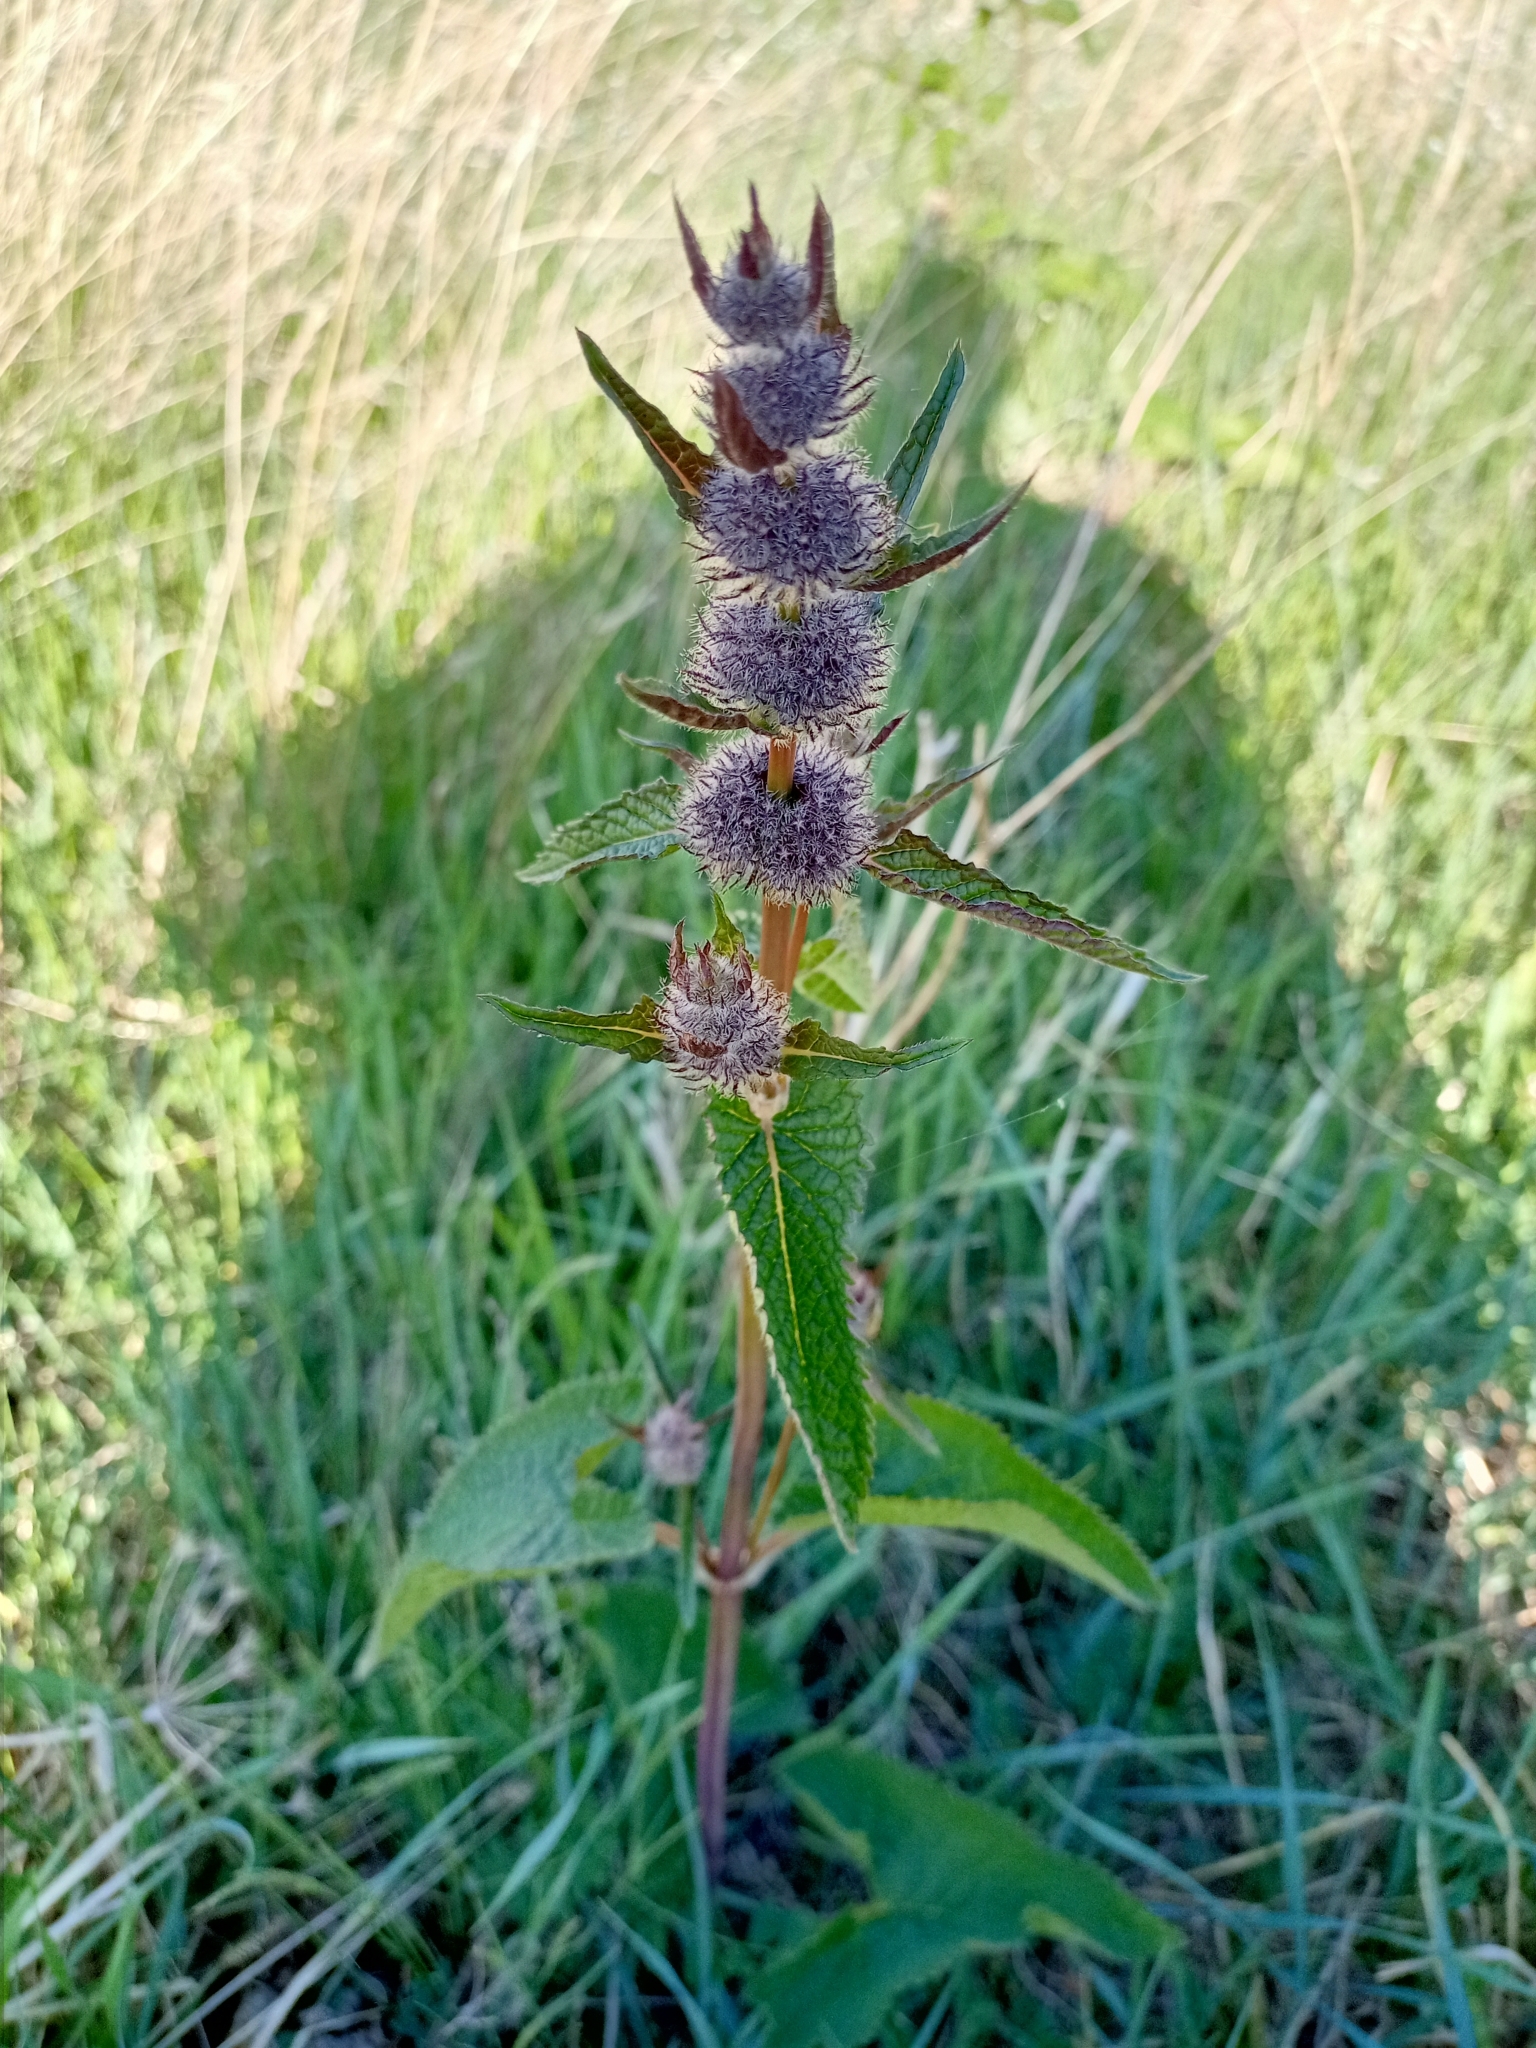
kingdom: Plantae
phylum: Tracheophyta
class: Magnoliopsida
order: Lamiales
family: Lamiaceae
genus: Phlomoides
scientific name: Phlomoides tuberosa
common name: Tuberous jerusalem sage
